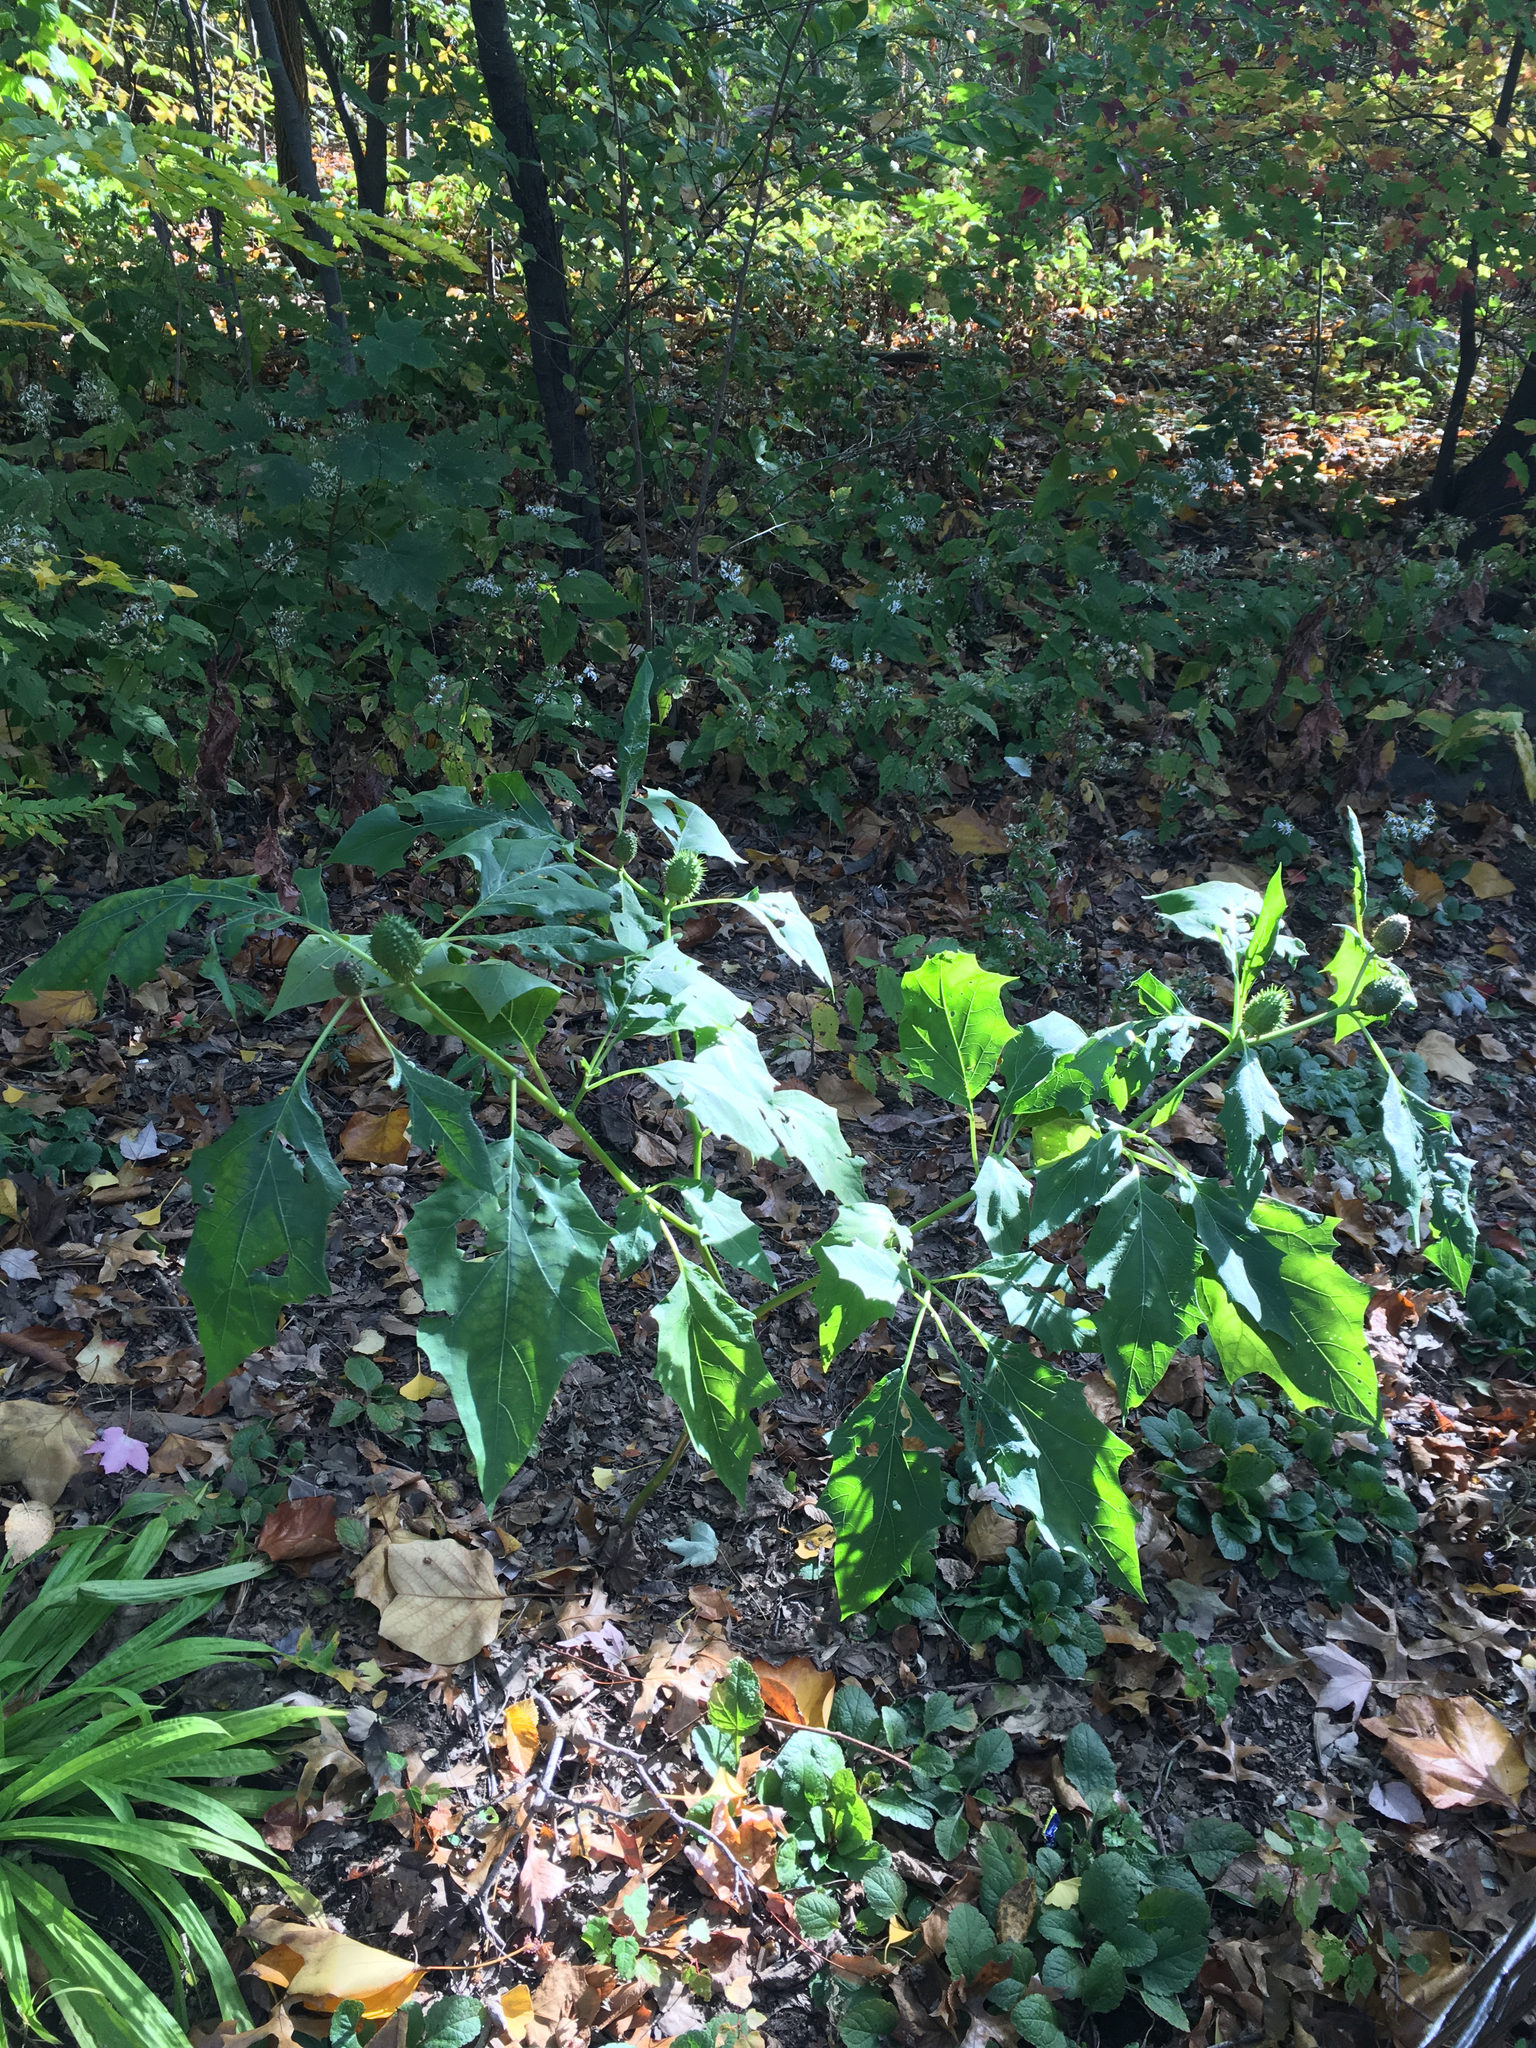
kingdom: Plantae
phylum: Tracheophyta
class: Magnoliopsida
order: Solanales
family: Solanaceae
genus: Datura
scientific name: Datura stramonium
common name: Thorn-apple
